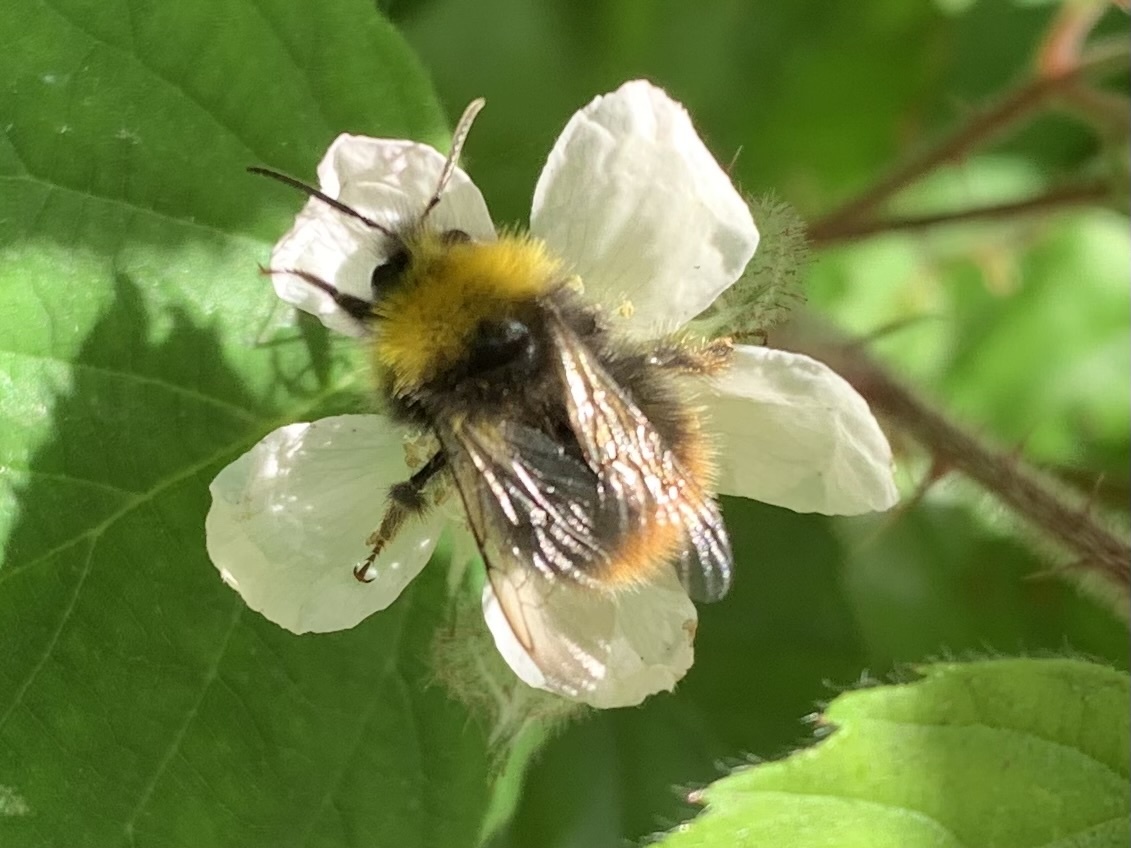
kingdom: Animalia
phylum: Arthropoda
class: Insecta
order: Hymenoptera
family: Apidae
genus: Bombus
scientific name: Bombus pratorum
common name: Early humble-bee
